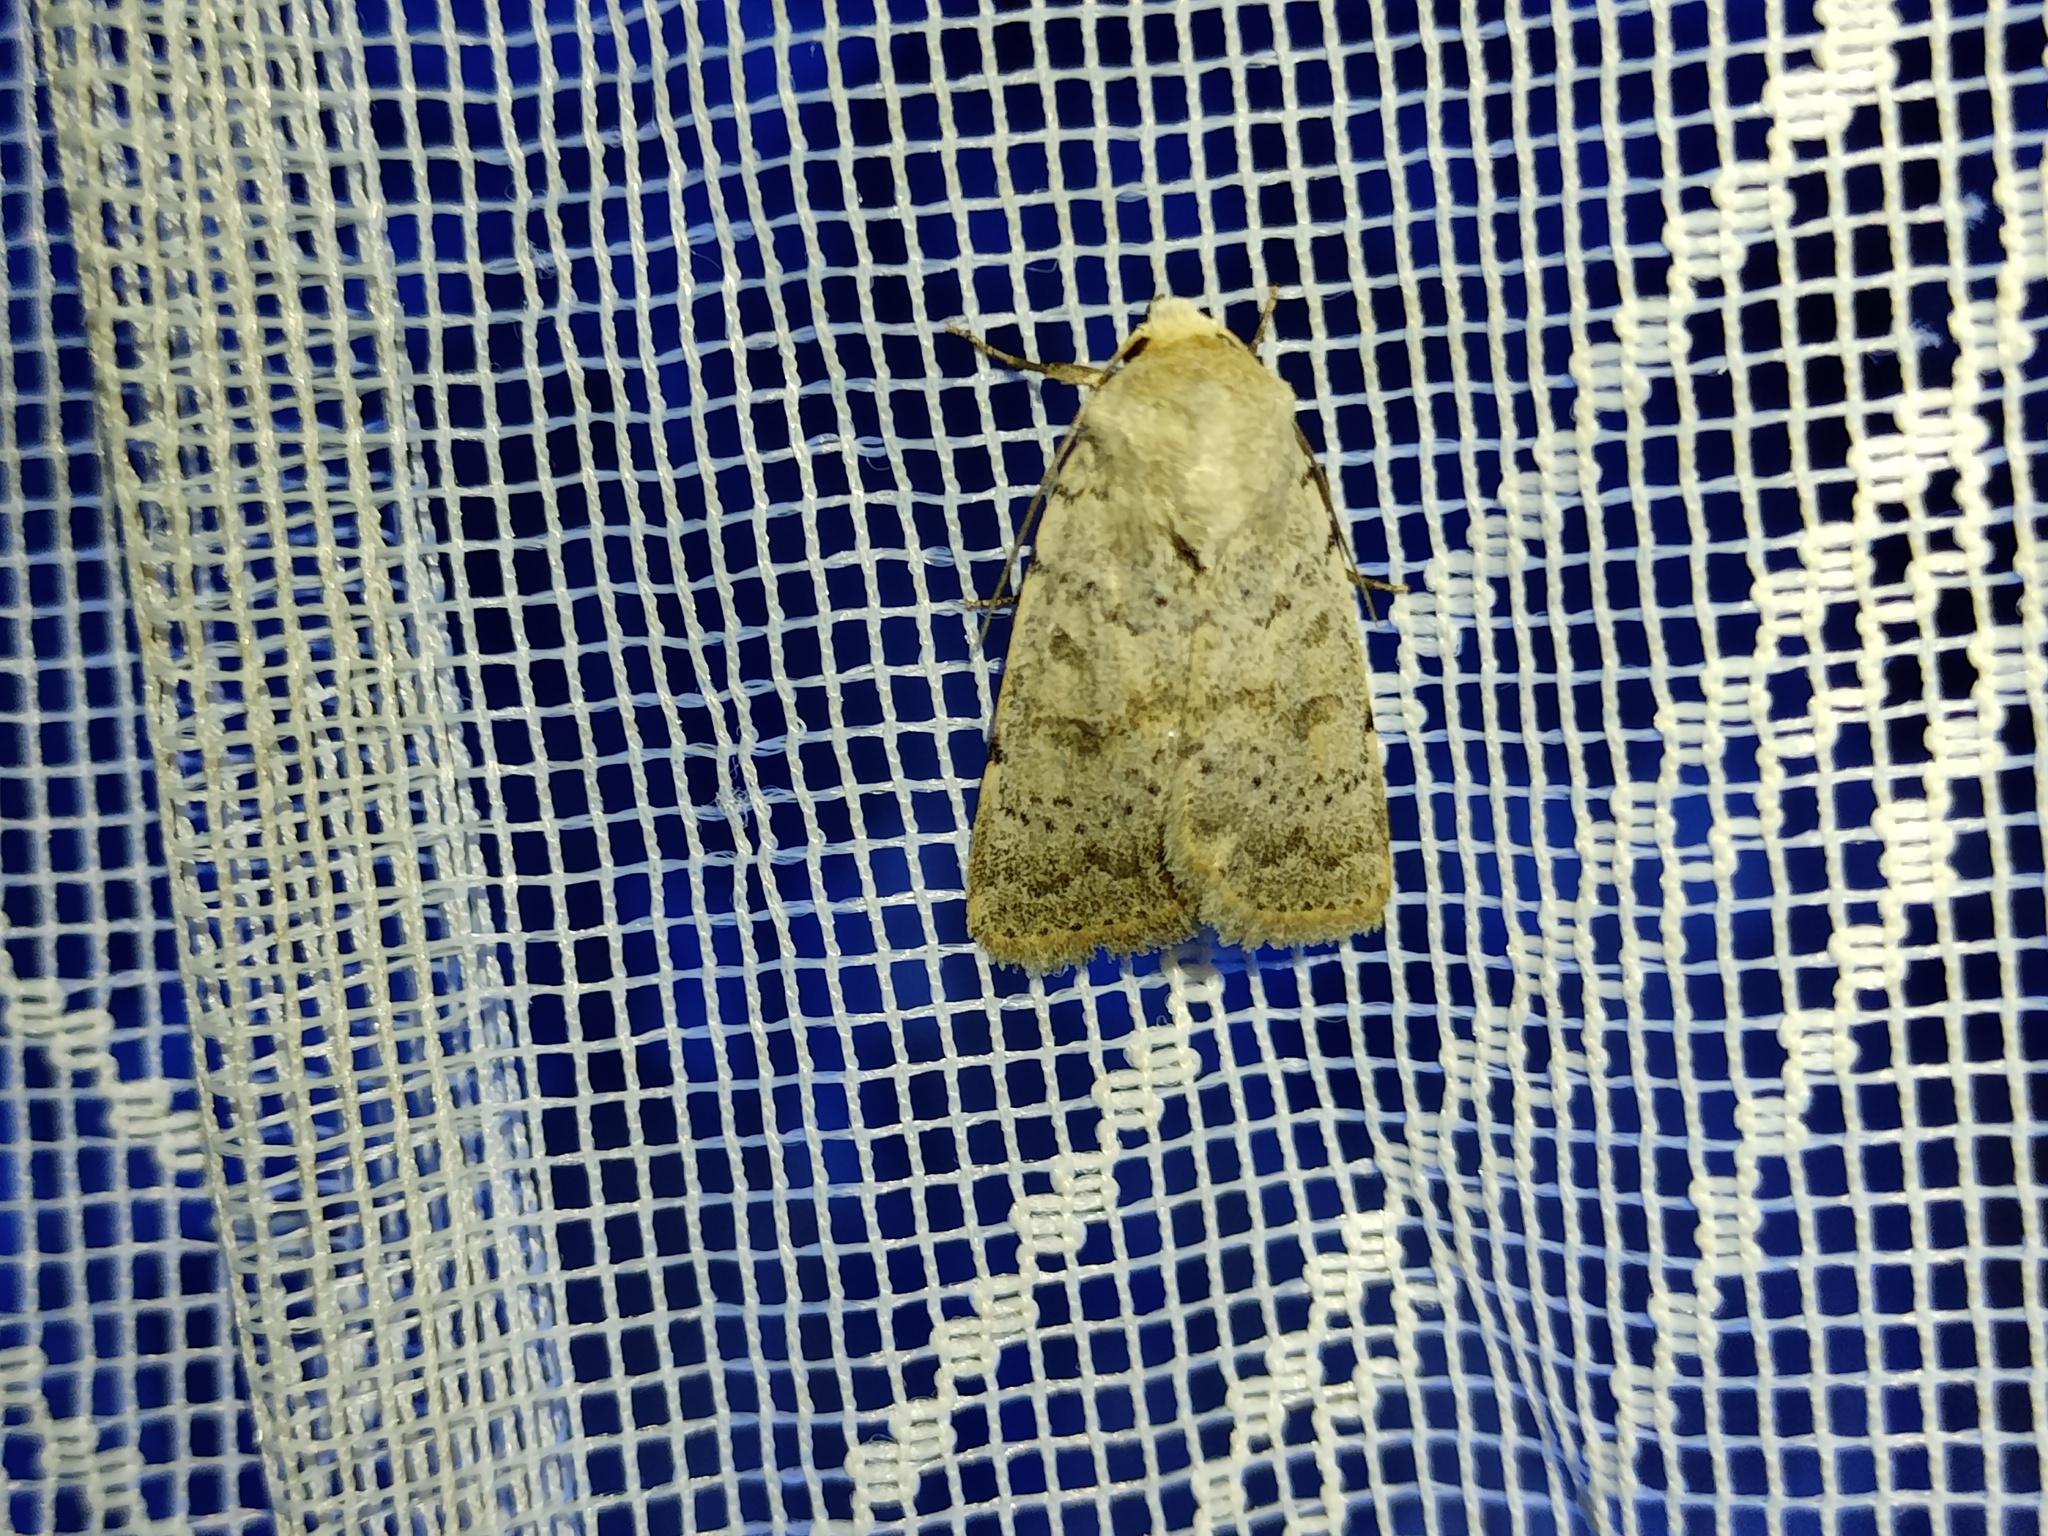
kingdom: Animalia
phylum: Arthropoda
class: Insecta
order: Lepidoptera
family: Noctuidae
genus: Hoplodrina
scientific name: Hoplodrina respersa
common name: Sprinkled rustic
